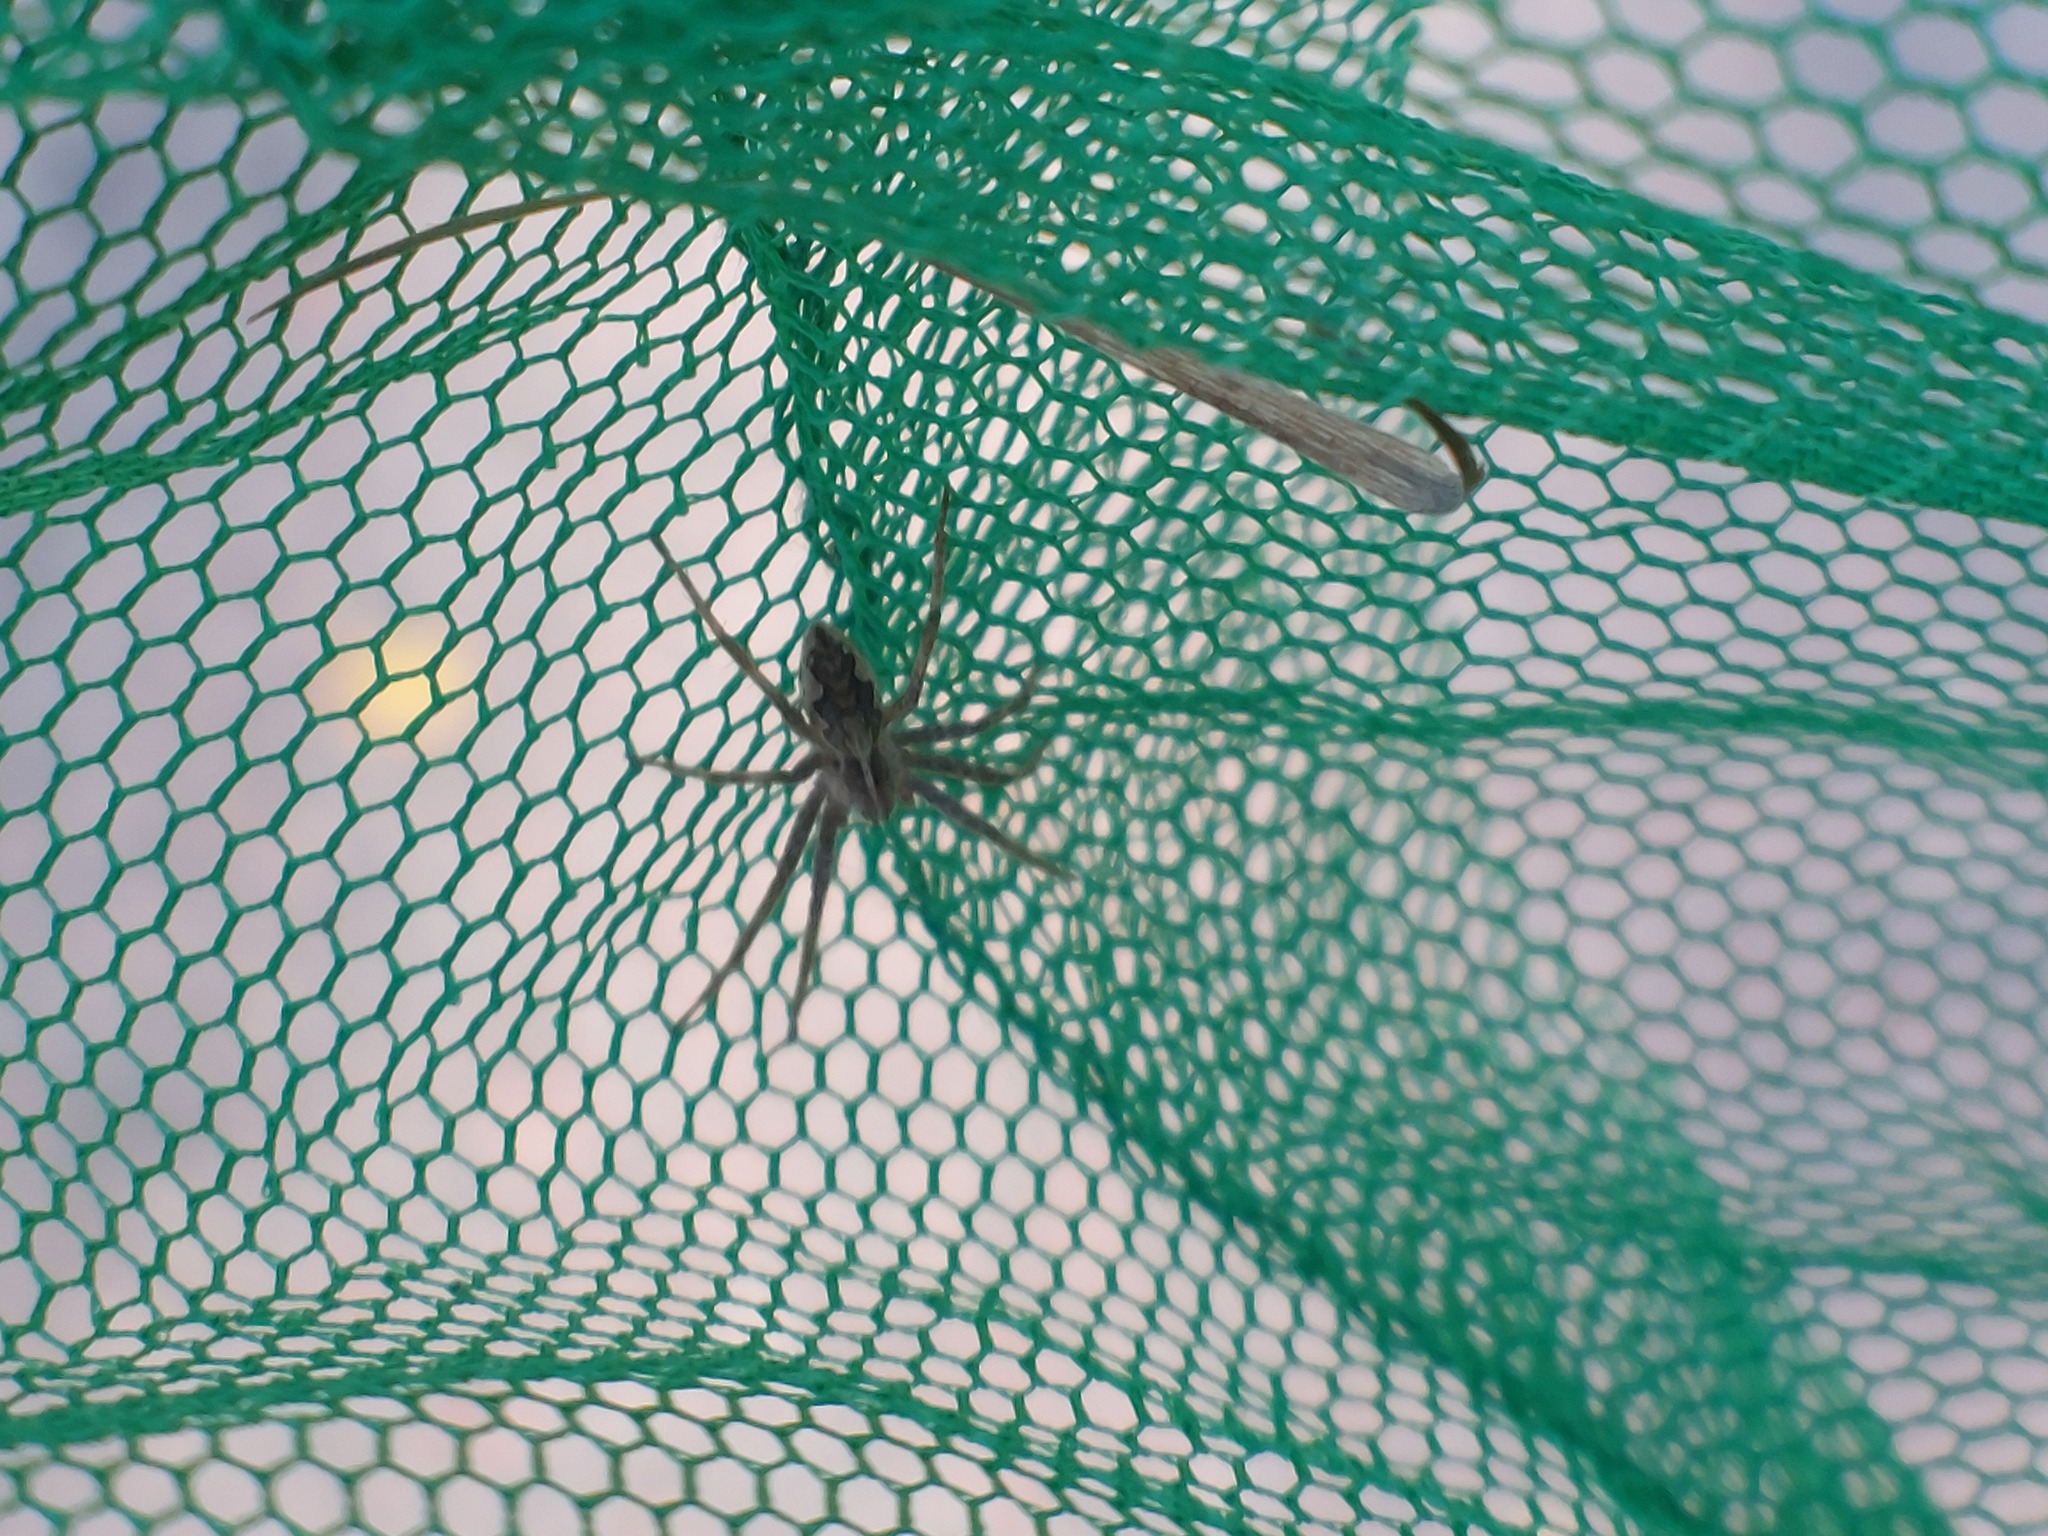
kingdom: Animalia
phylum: Arthropoda
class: Arachnida
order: Araneae
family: Pisauridae
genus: Pisaura
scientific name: Pisaura mirabilis
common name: Tent spider
